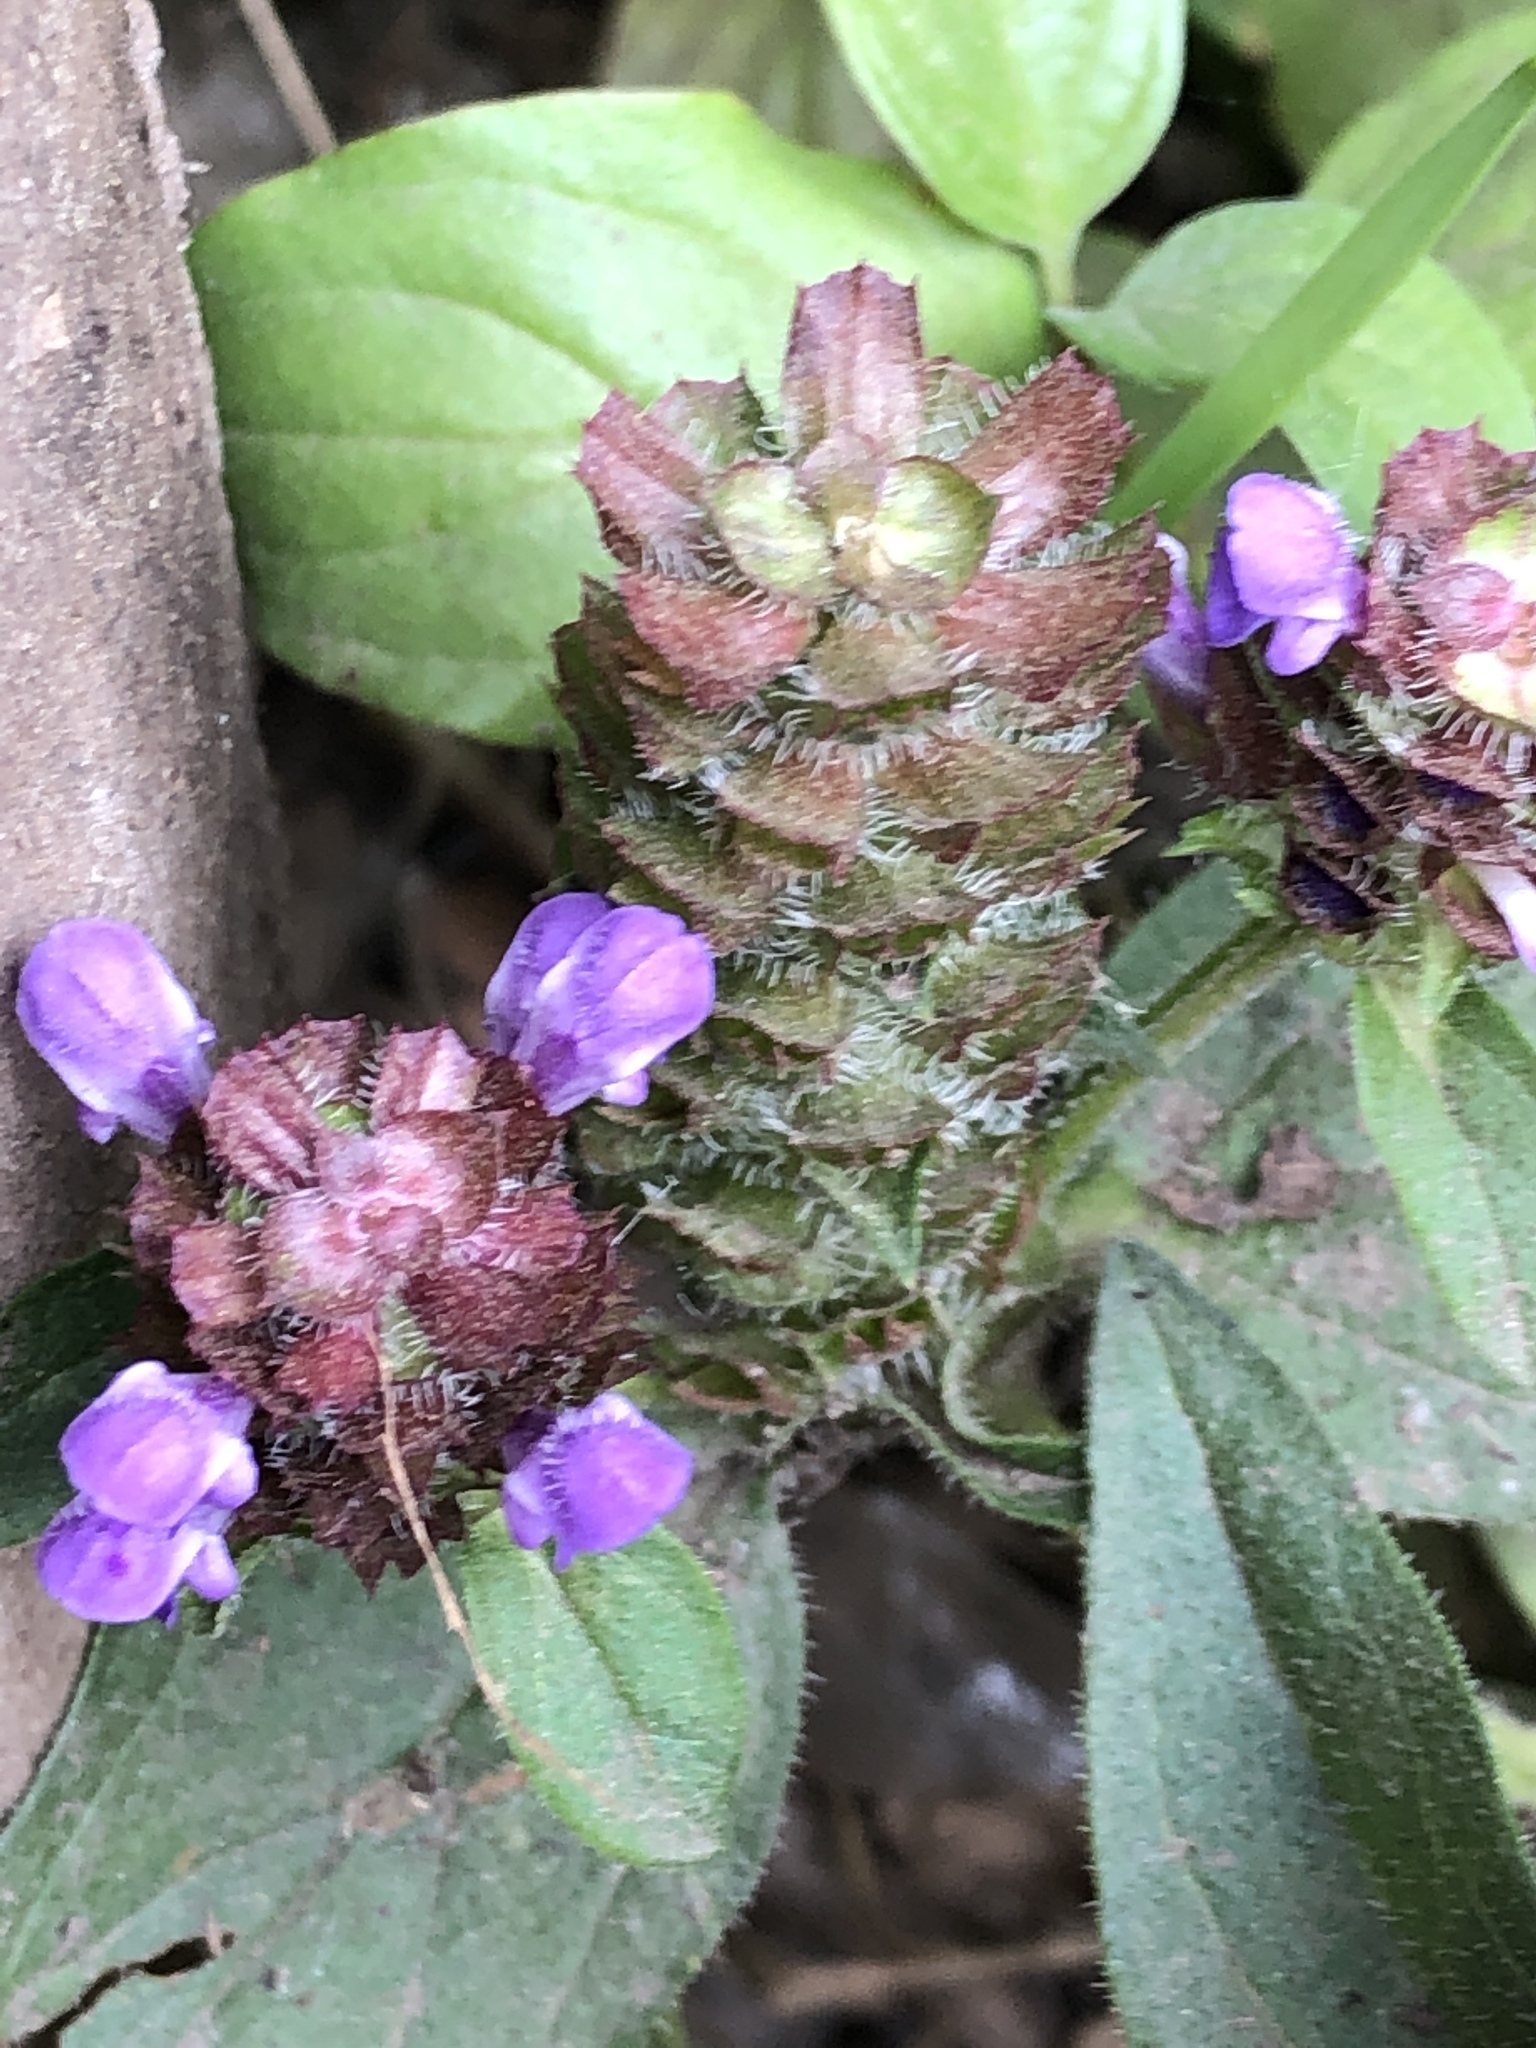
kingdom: Plantae
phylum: Tracheophyta
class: Magnoliopsida
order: Lamiales
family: Lamiaceae
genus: Prunella
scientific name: Prunella vulgaris
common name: Heal-all
